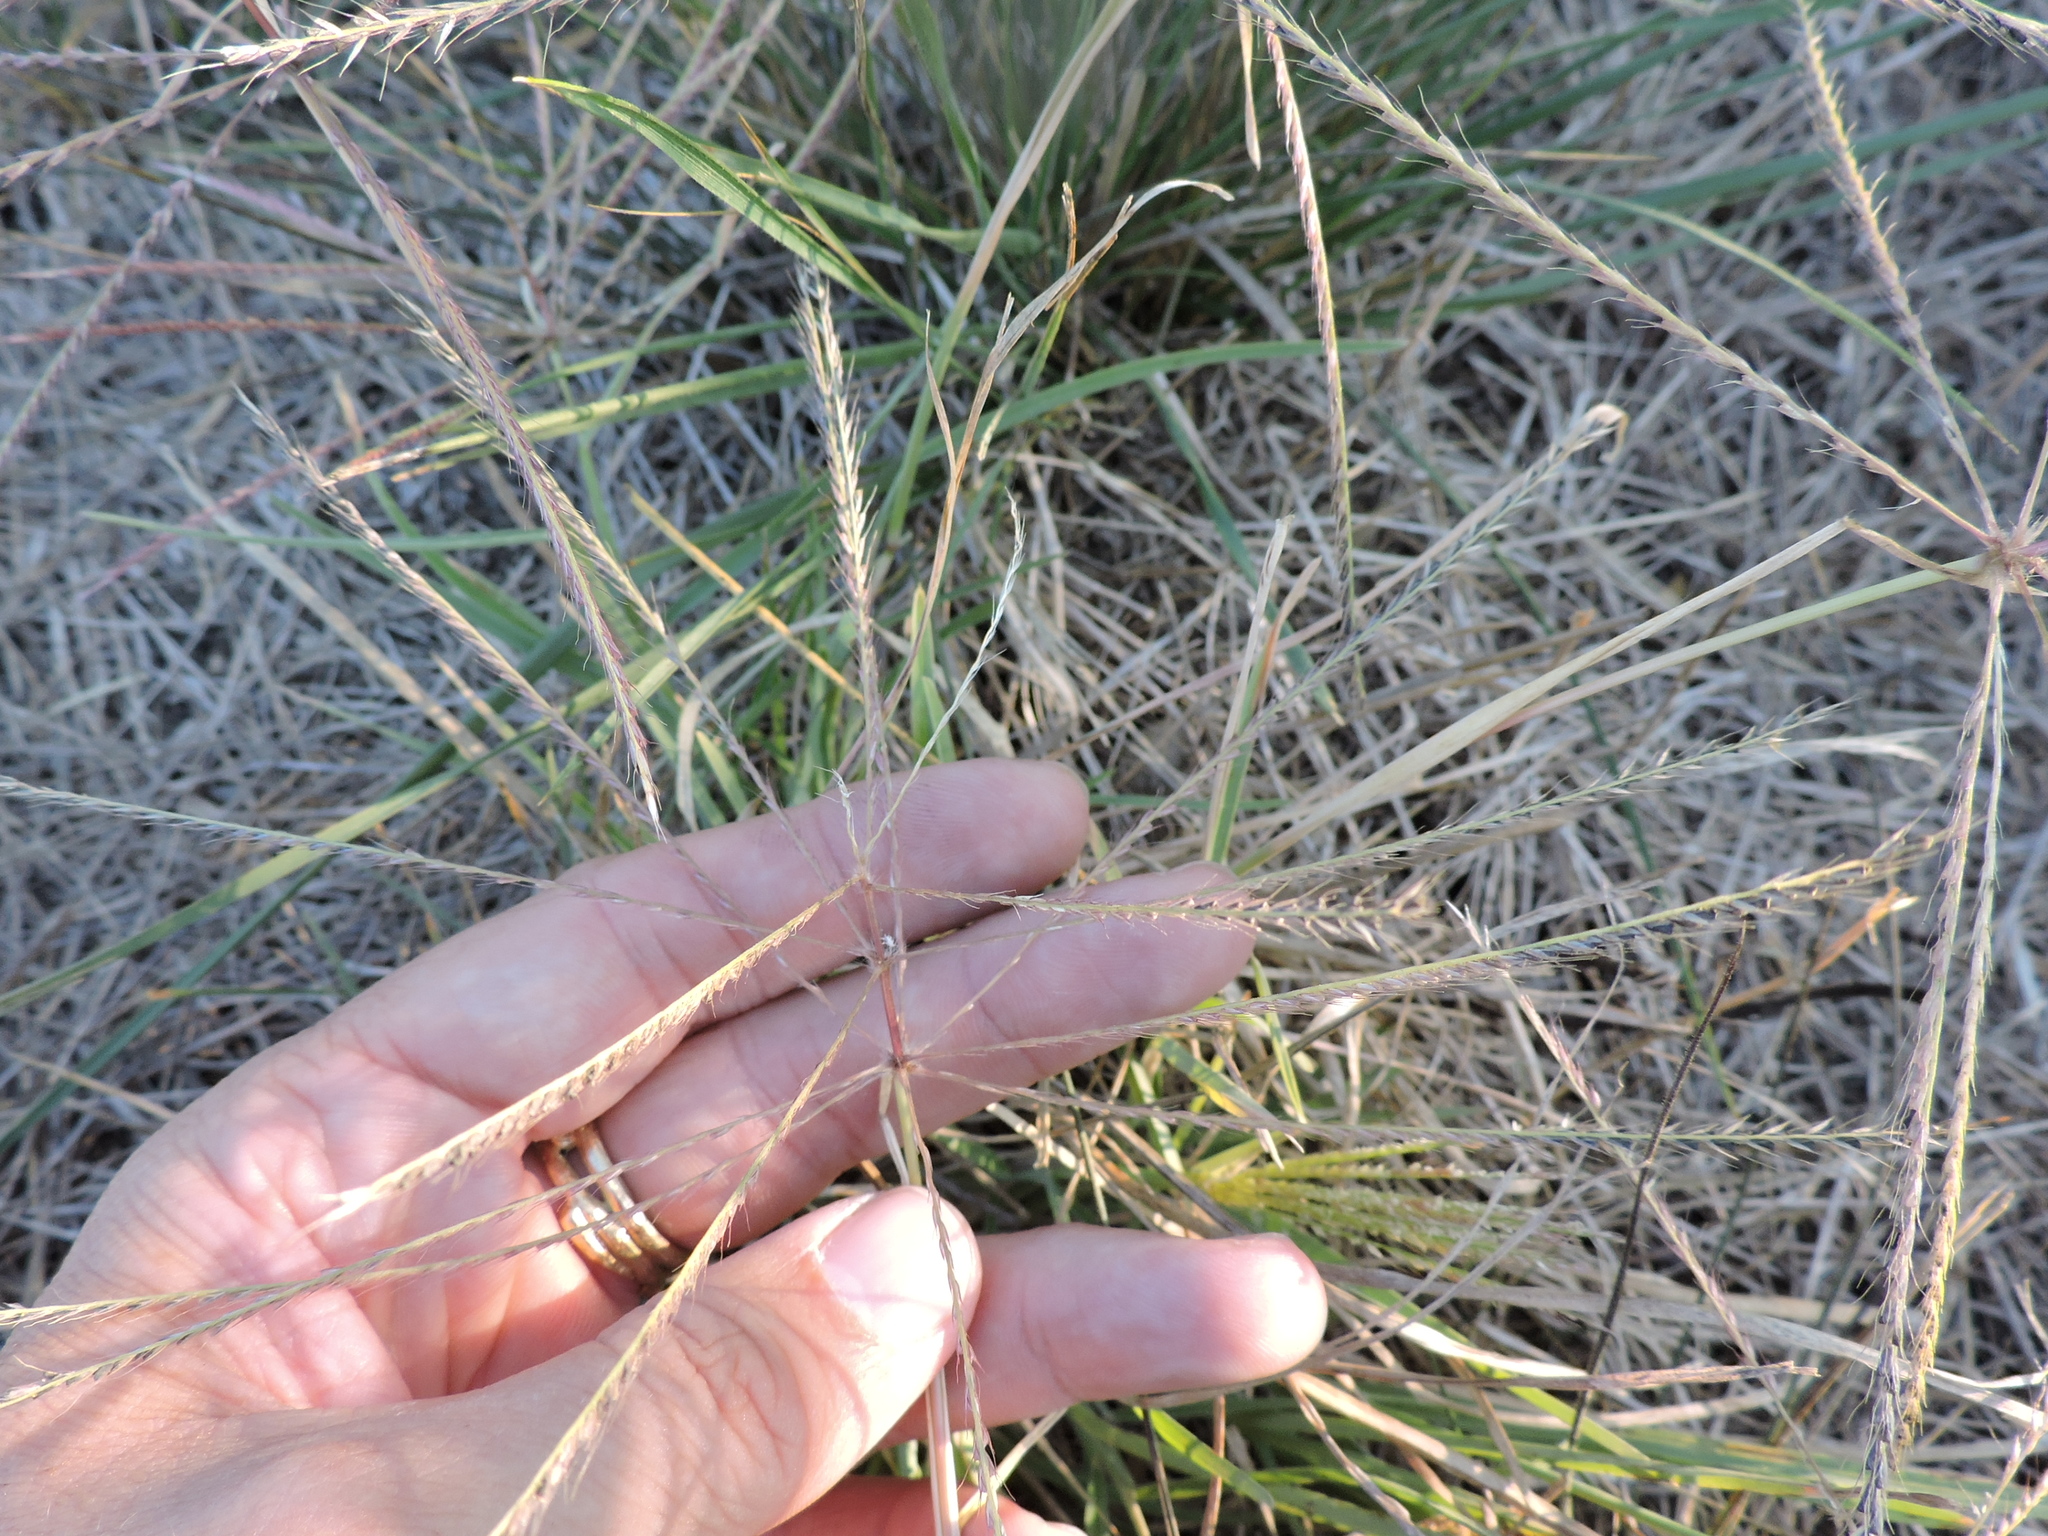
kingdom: Plantae
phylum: Tracheophyta
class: Liliopsida
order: Poales
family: Poaceae
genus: Chloris
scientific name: Chloris verticillata
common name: Tumble windmill grass
